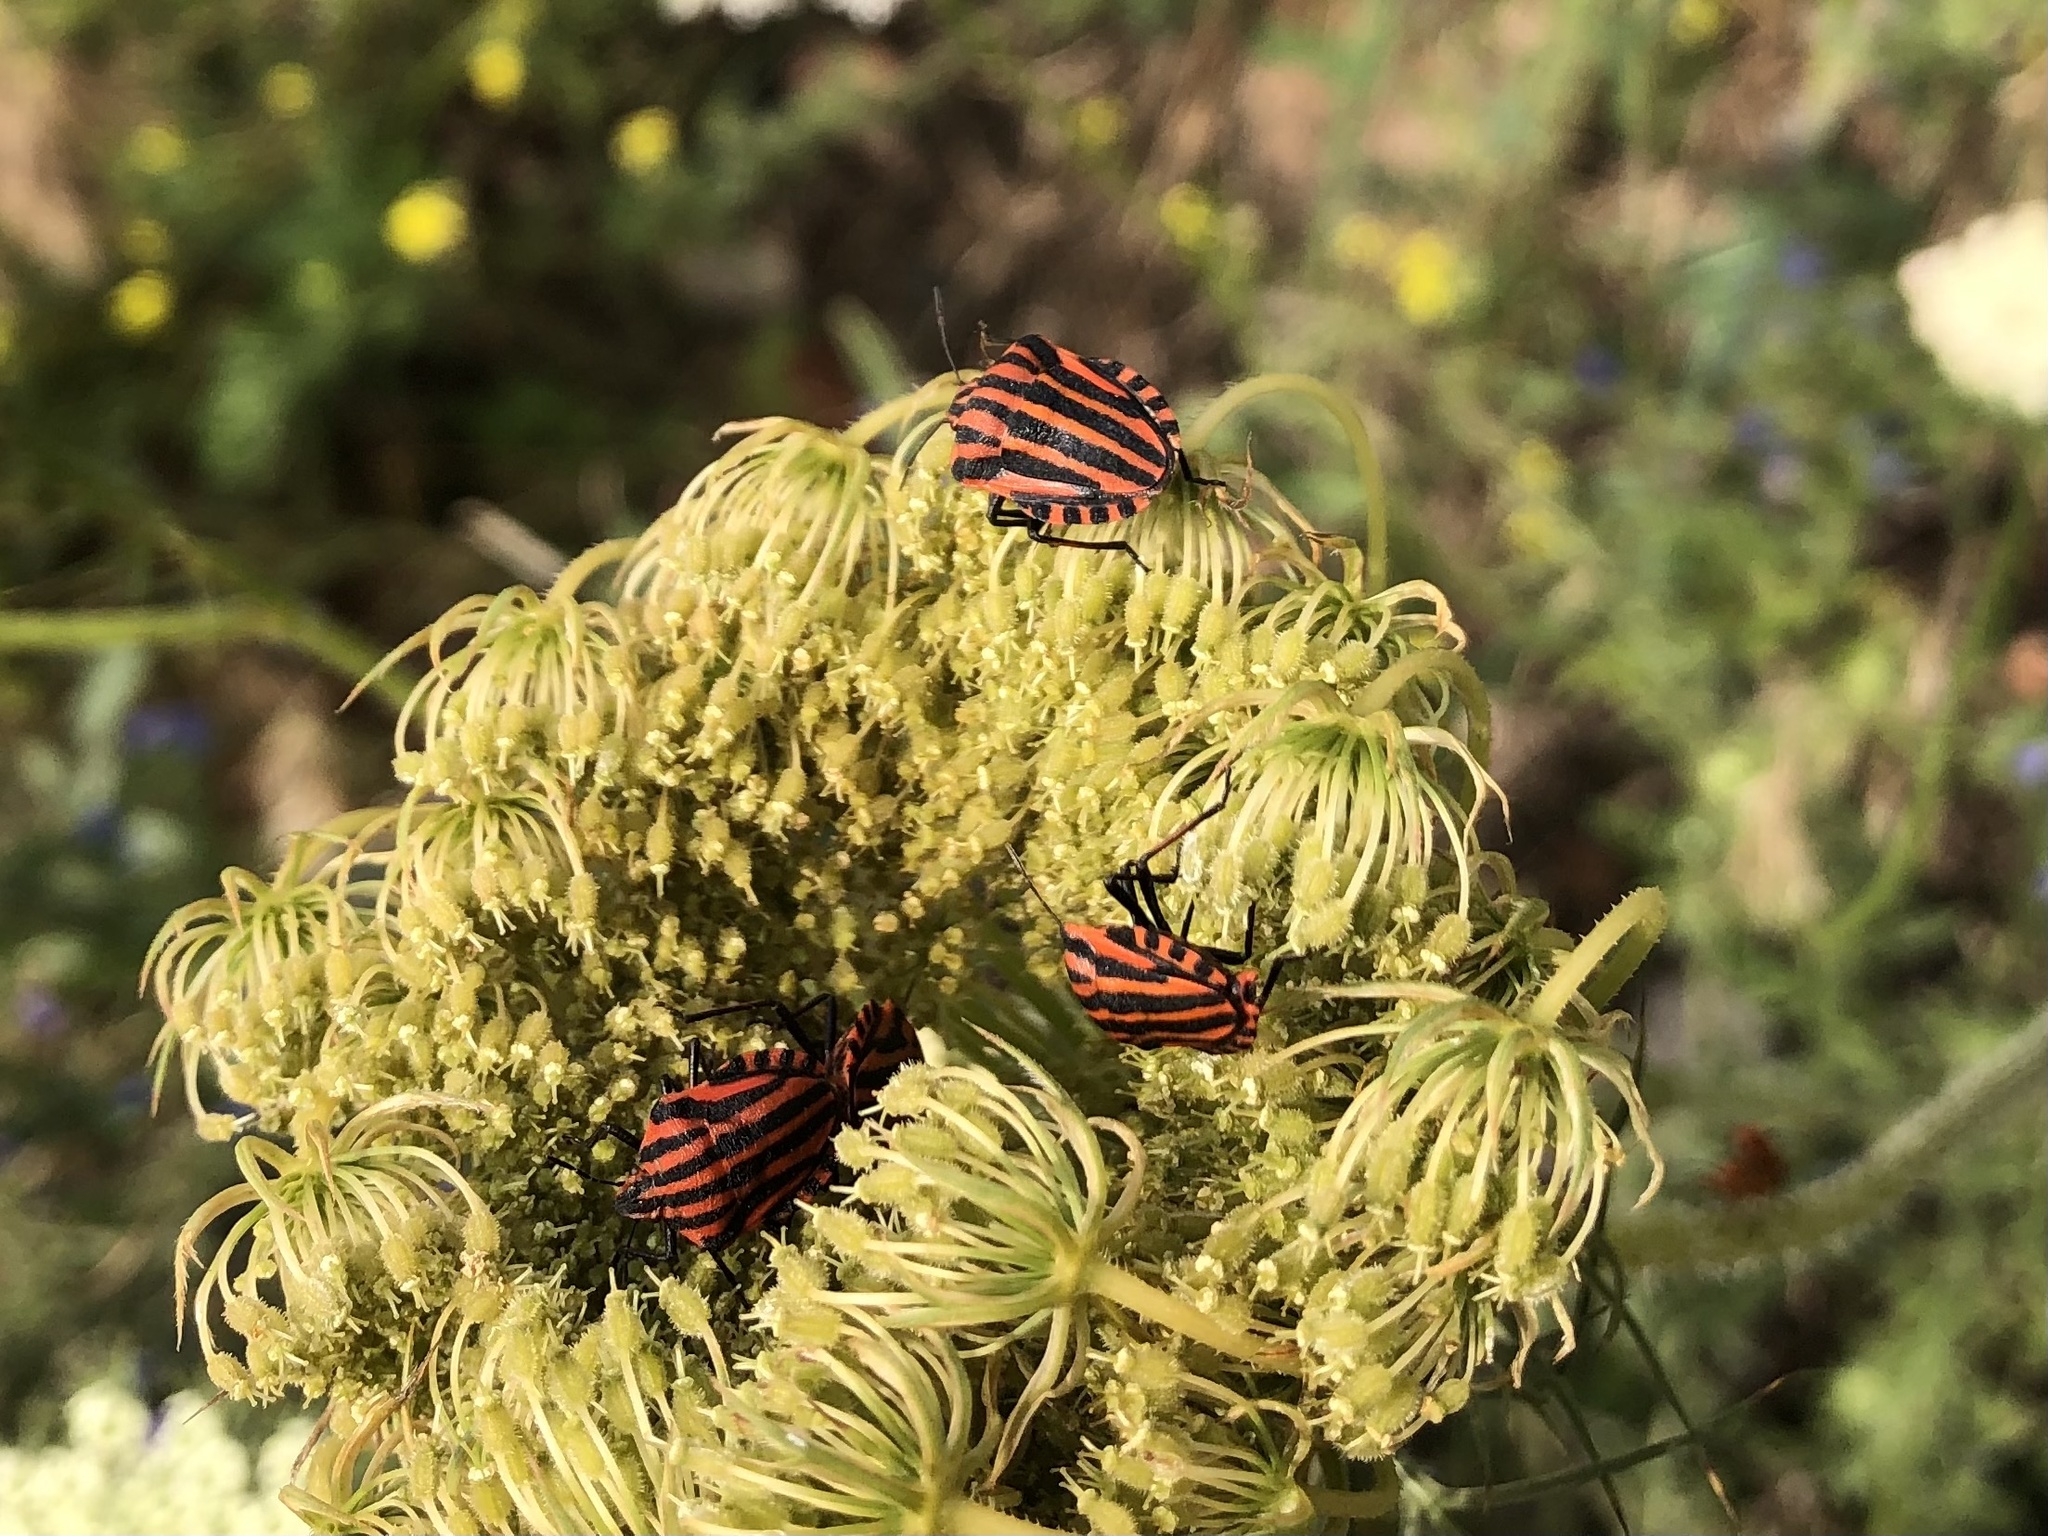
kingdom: Animalia
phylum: Arthropoda
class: Insecta
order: Hemiptera
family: Pentatomidae
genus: Graphosoma
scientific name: Graphosoma italicum
